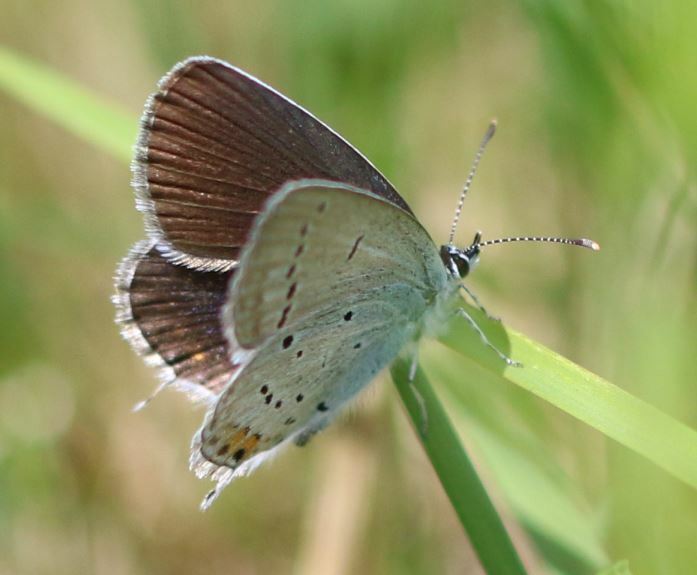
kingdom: Animalia
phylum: Arthropoda
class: Insecta
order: Lepidoptera
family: Lycaenidae
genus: Elkalyce
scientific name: Elkalyce argiades
